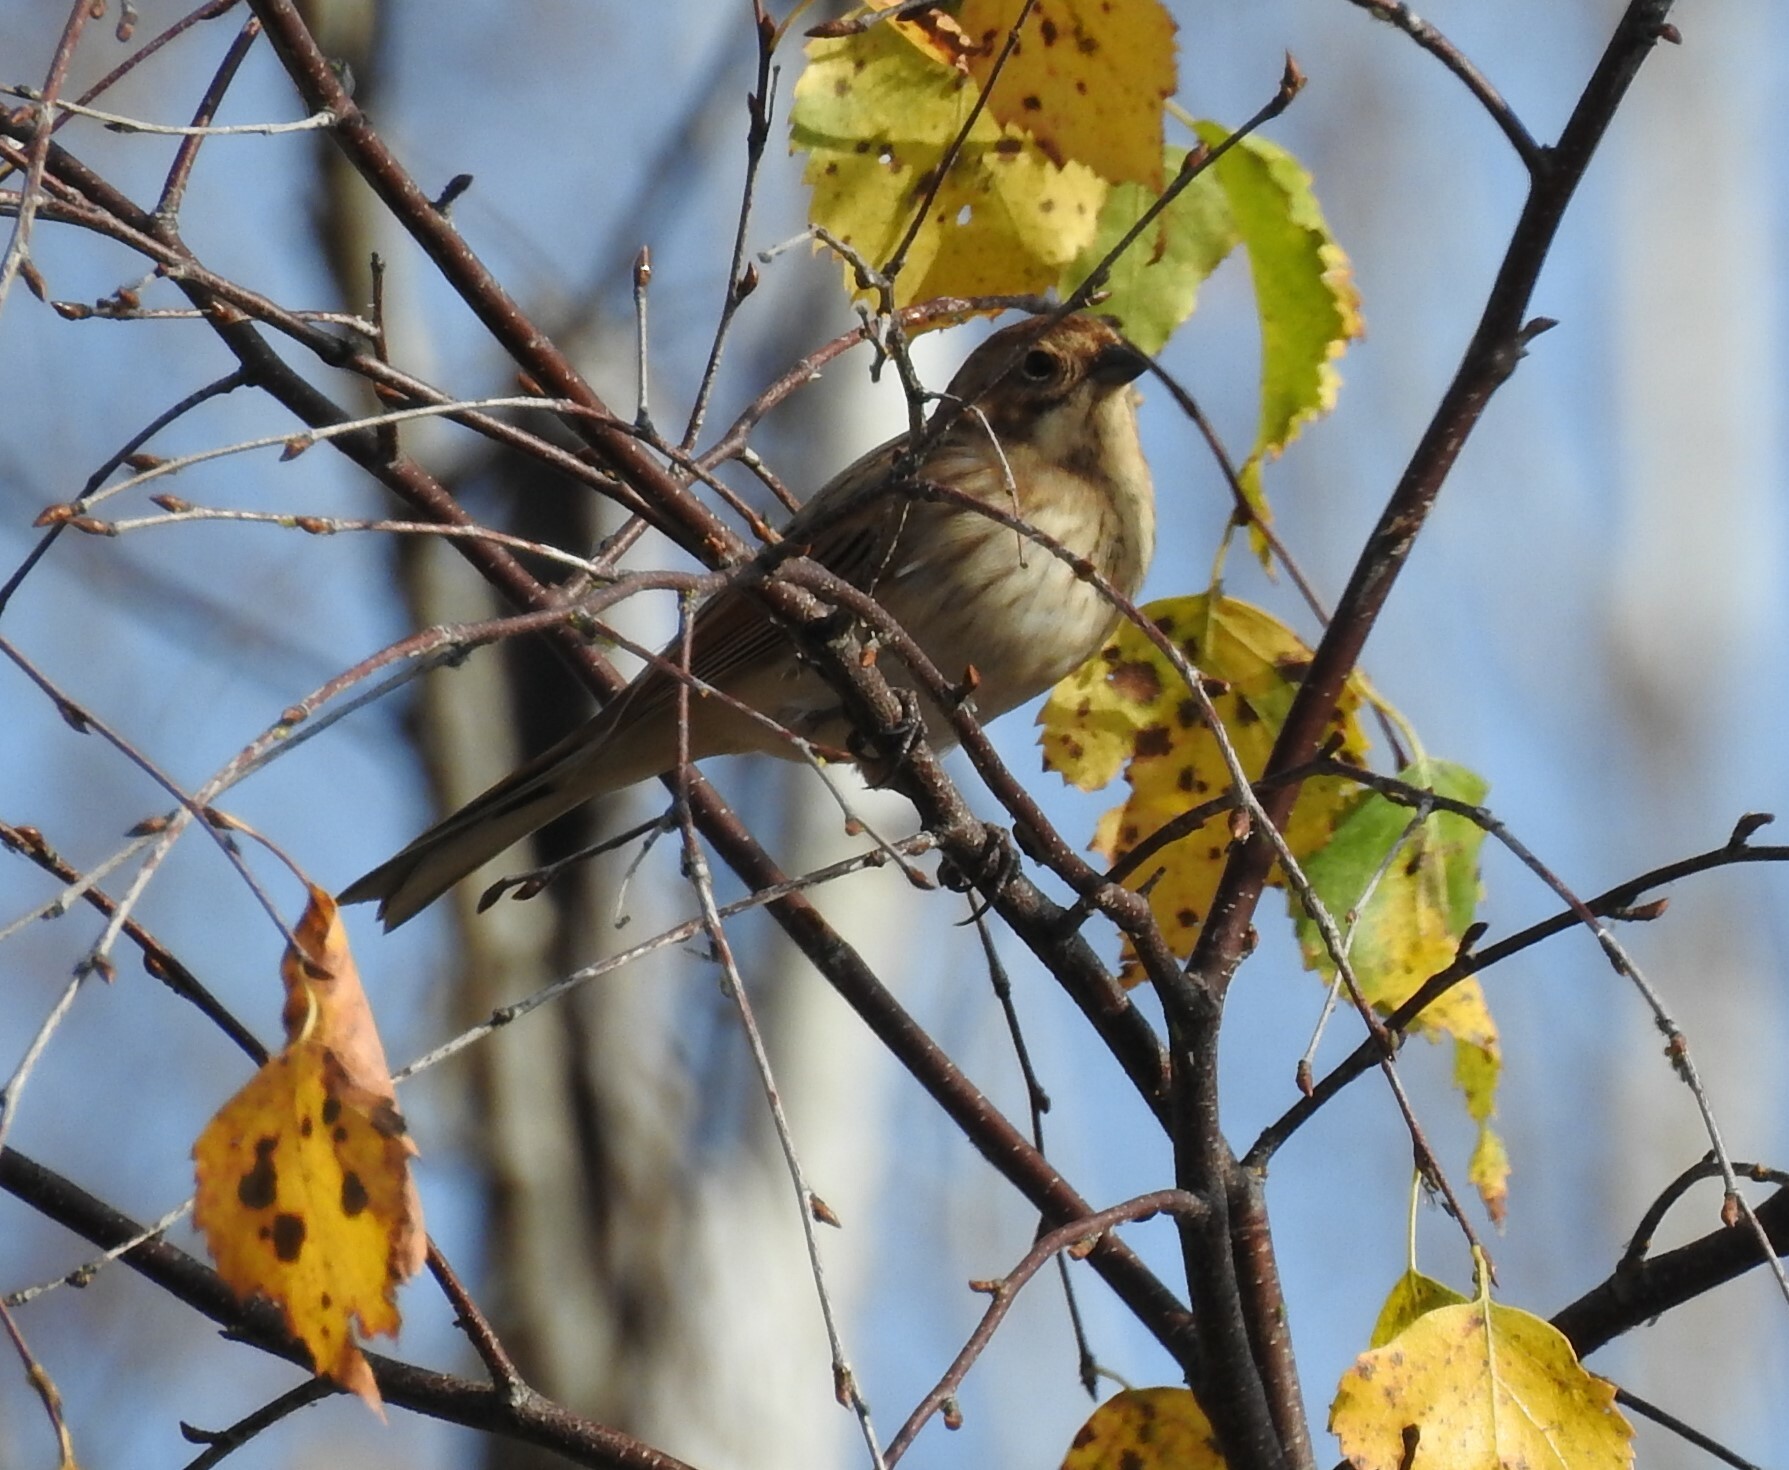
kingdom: Animalia
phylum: Chordata
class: Aves
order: Passeriformes
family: Emberizidae
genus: Emberiza
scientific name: Emberiza schoeniclus
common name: Reed bunting
